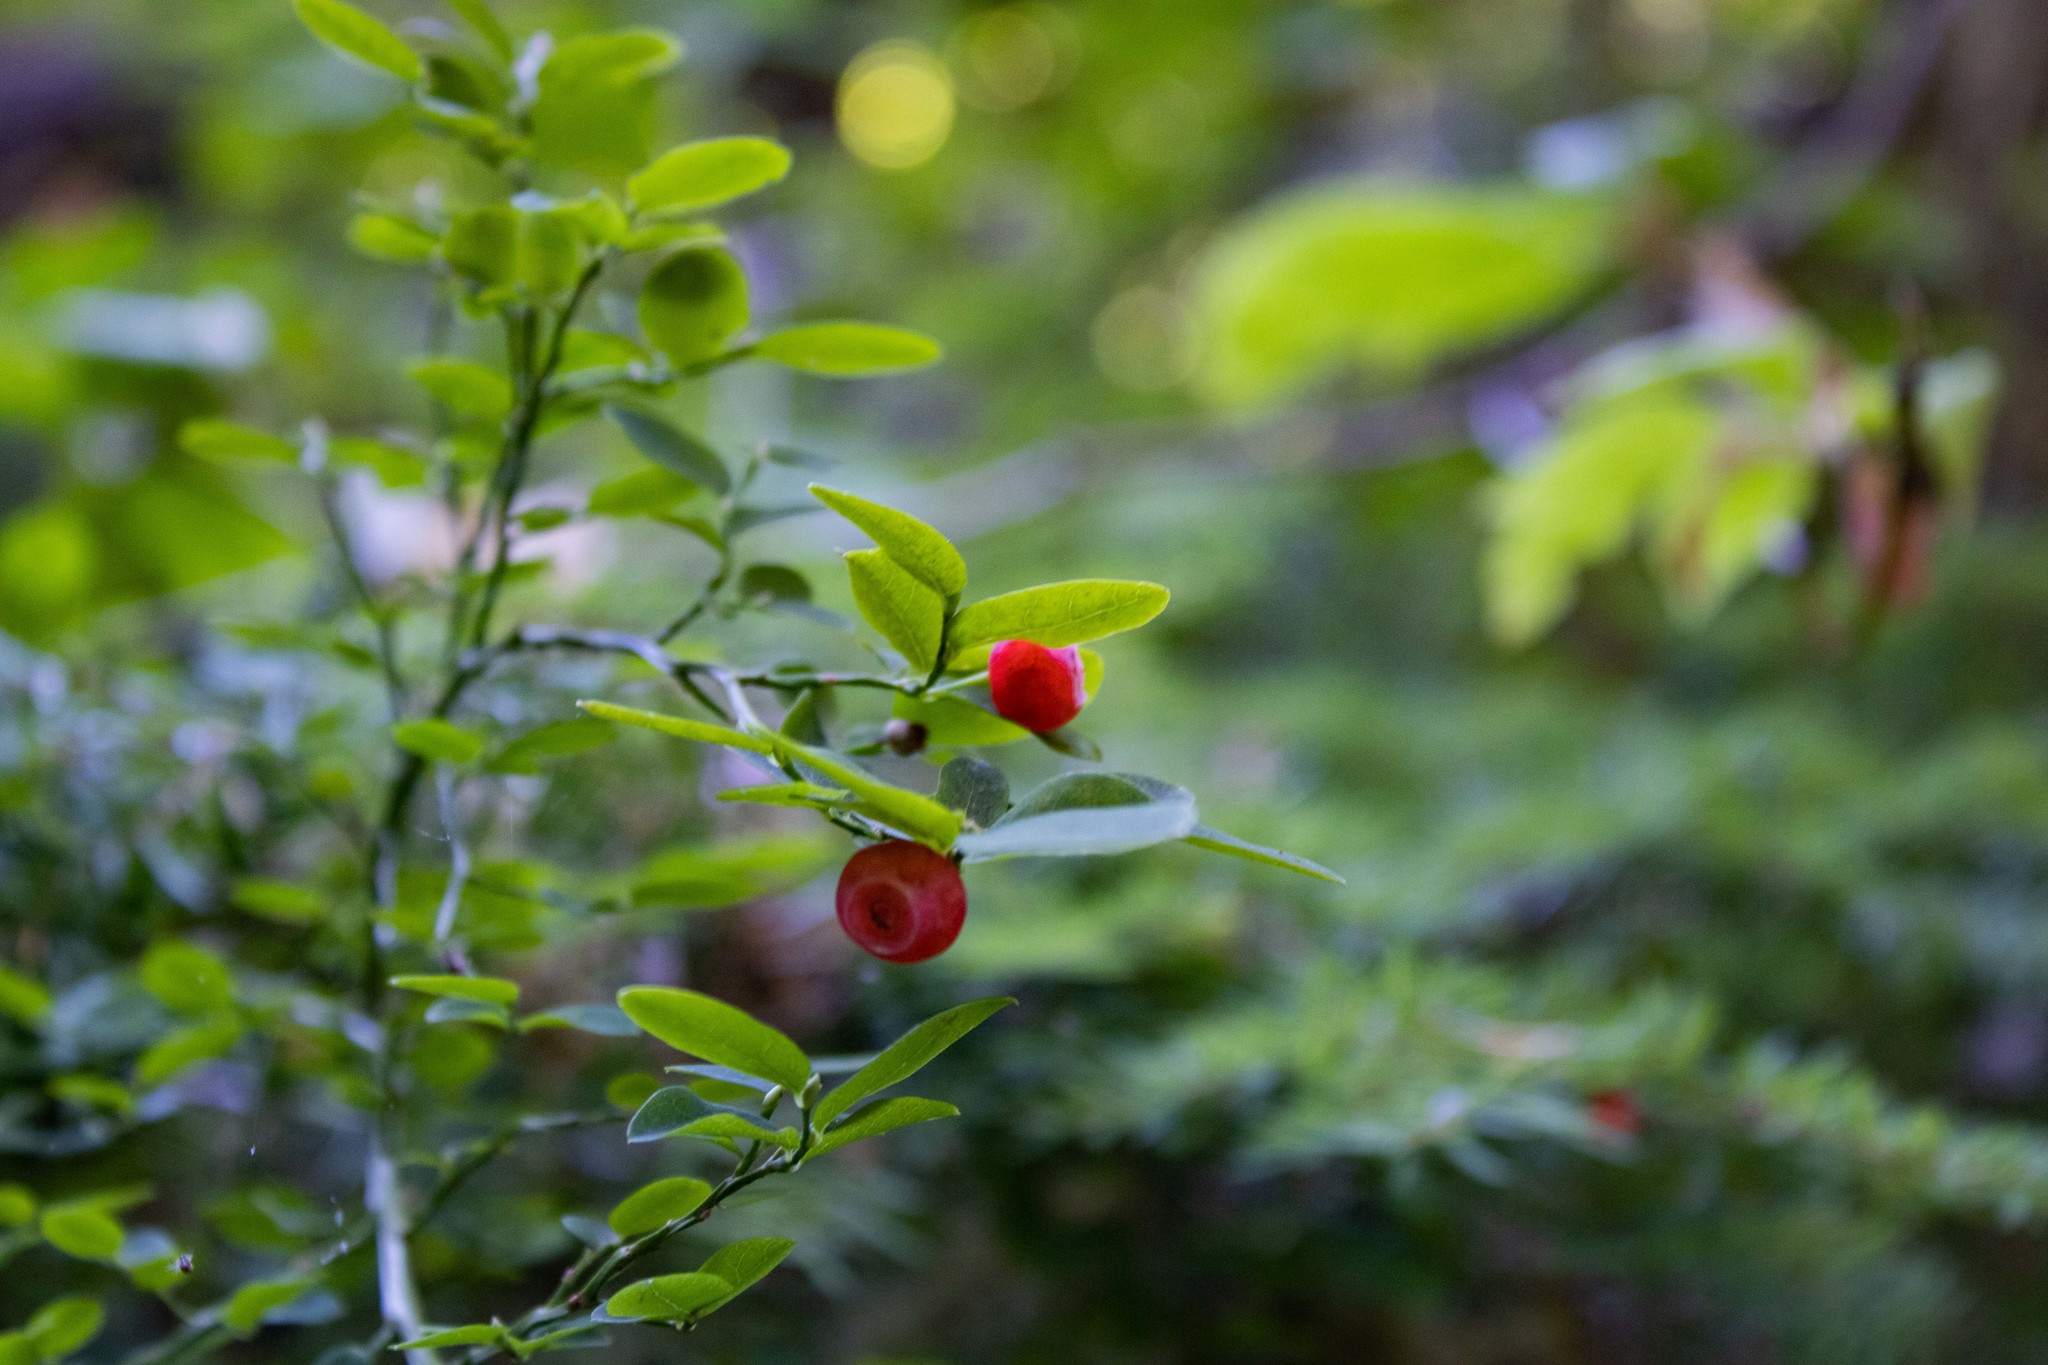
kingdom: Plantae
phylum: Tracheophyta
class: Magnoliopsida
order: Ericales
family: Ericaceae
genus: Vaccinium
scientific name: Vaccinium parvifolium
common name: Red-huckleberry
